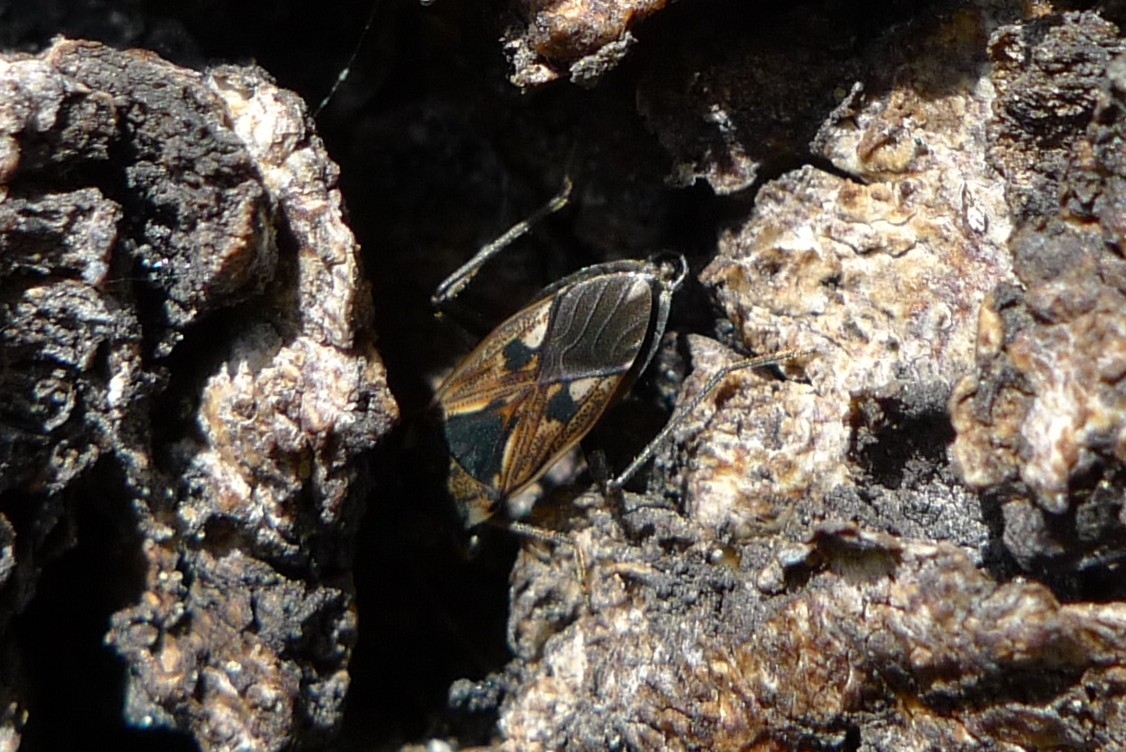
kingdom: Animalia
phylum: Arthropoda
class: Insecta
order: Hemiptera
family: Rhyparochromidae
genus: Rhyparochromus
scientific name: Rhyparochromus vulgaris
